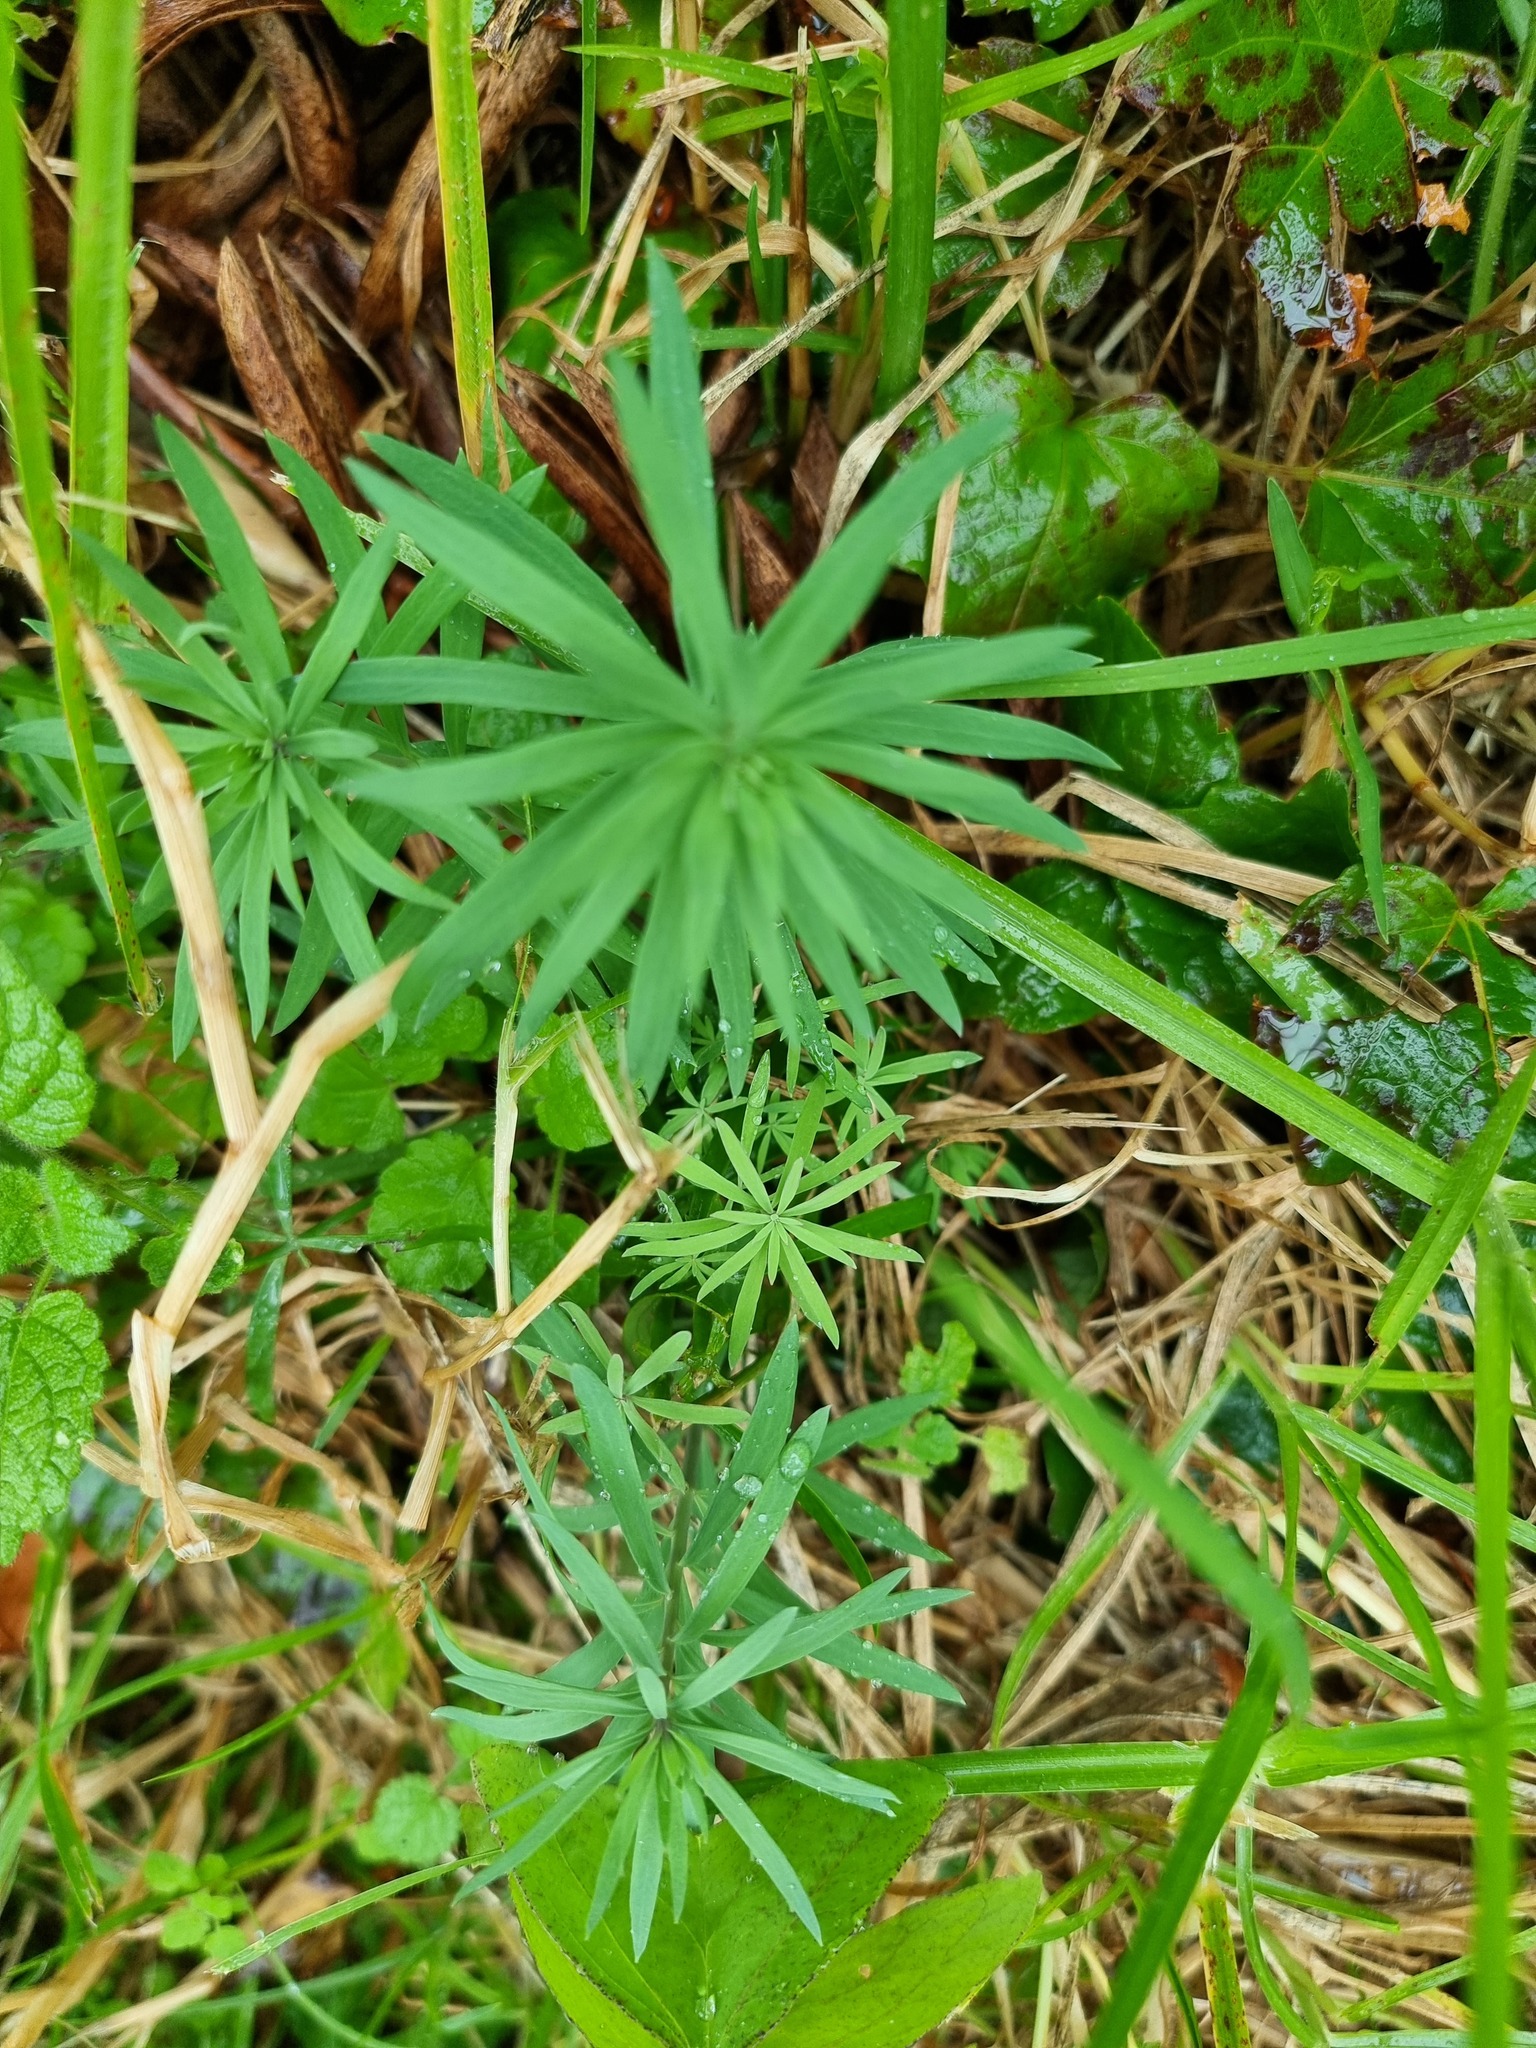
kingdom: Plantae
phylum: Tracheophyta
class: Magnoliopsida
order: Lamiales
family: Plantaginaceae
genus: Linaria
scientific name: Linaria purpurea
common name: Purple toadflax
